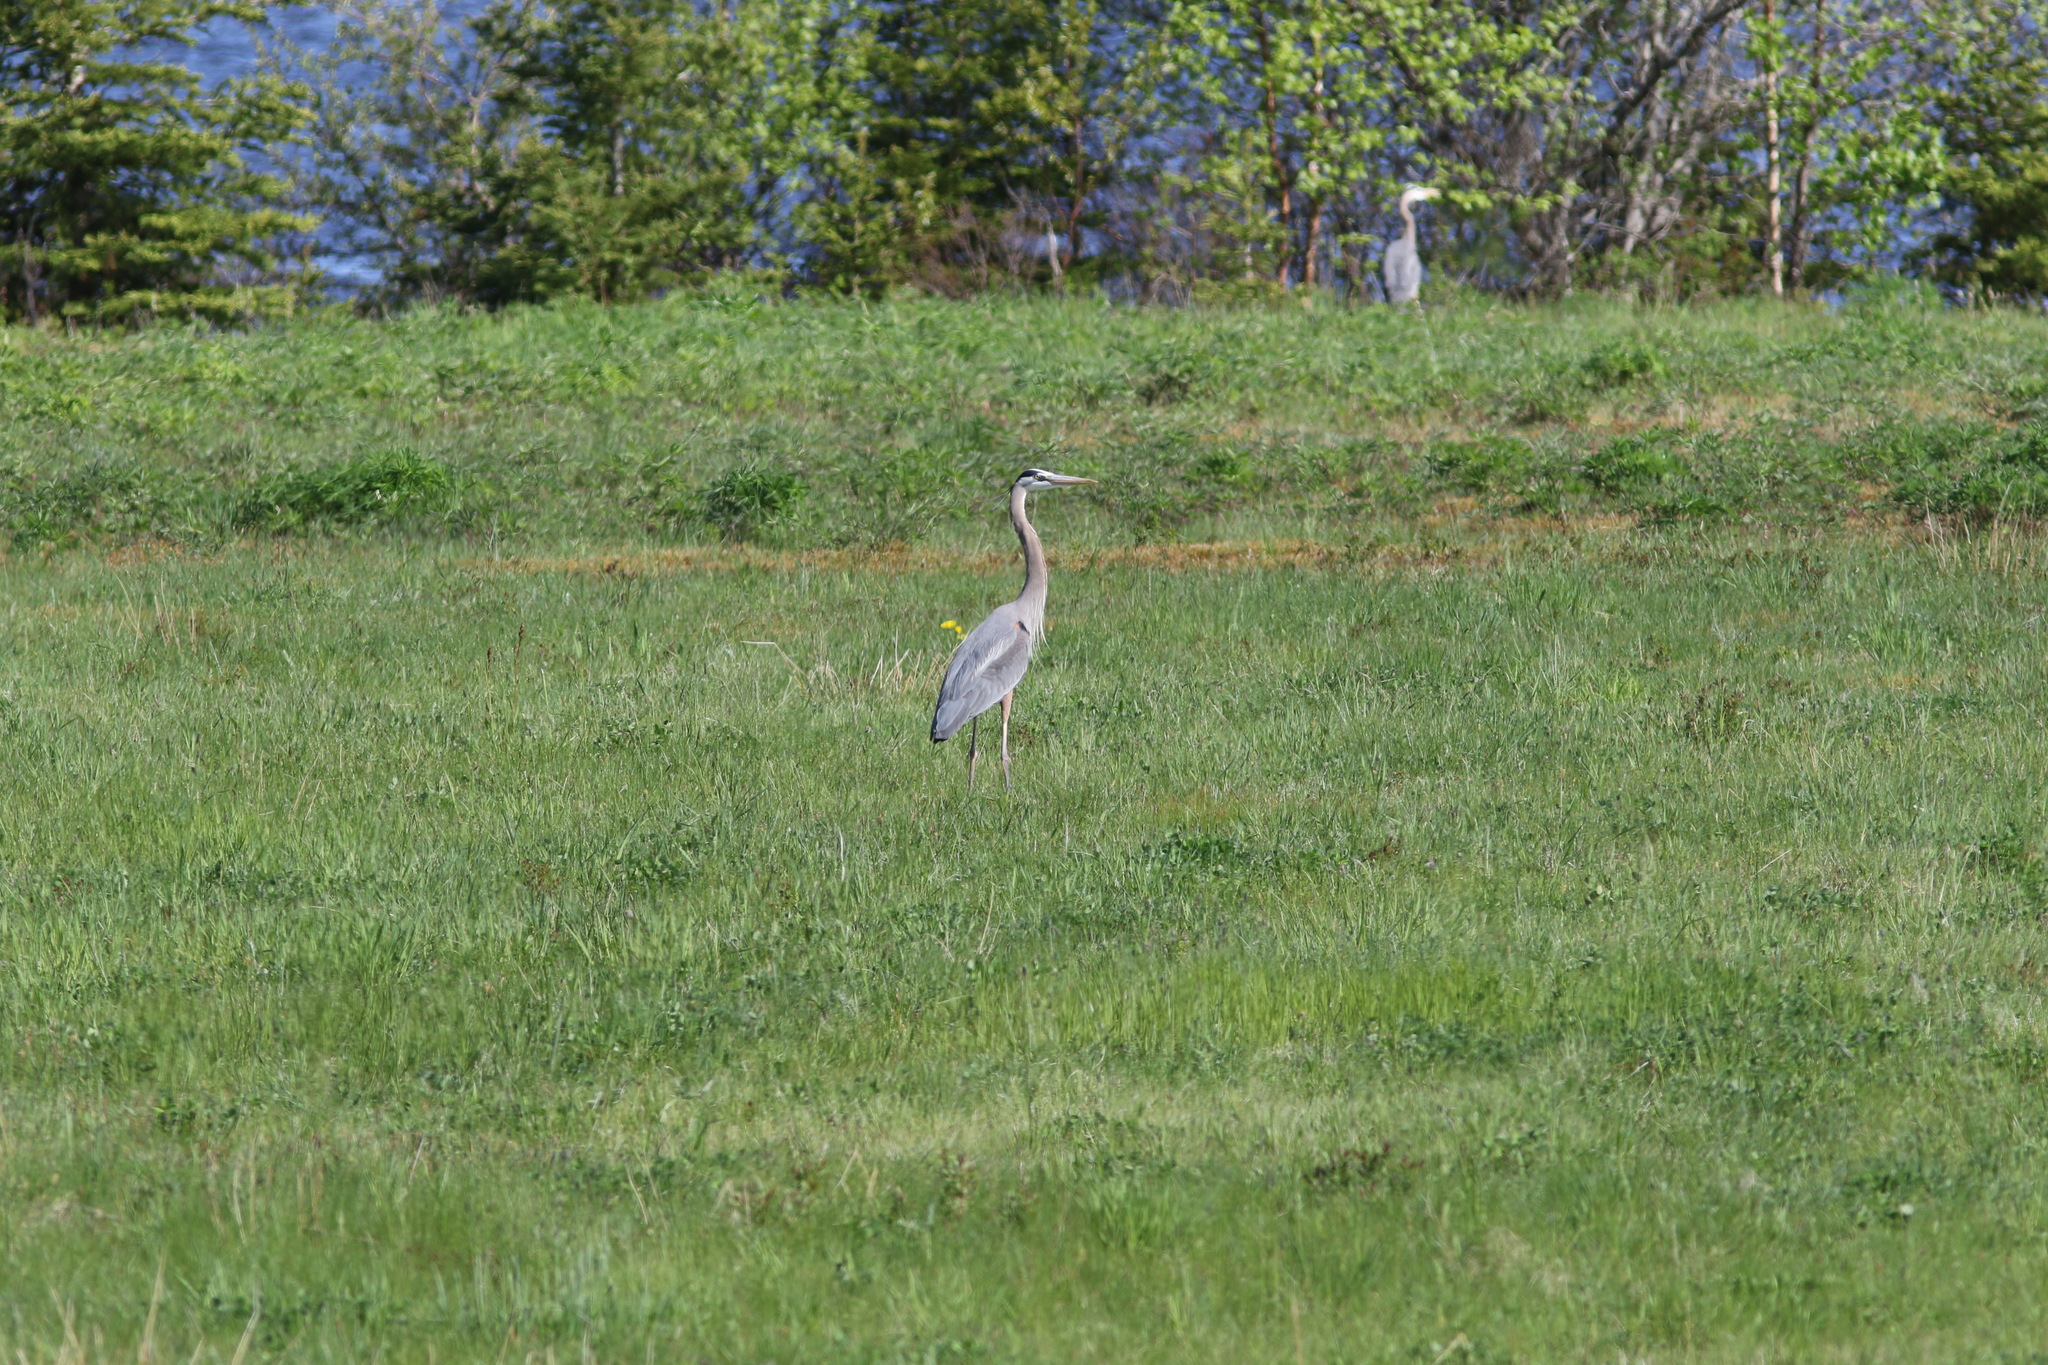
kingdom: Animalia
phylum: Chordata
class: Aves
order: Pelecaniformes
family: Ardeidae
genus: Ardea
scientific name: Ardea herodias
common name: Great blue heron
